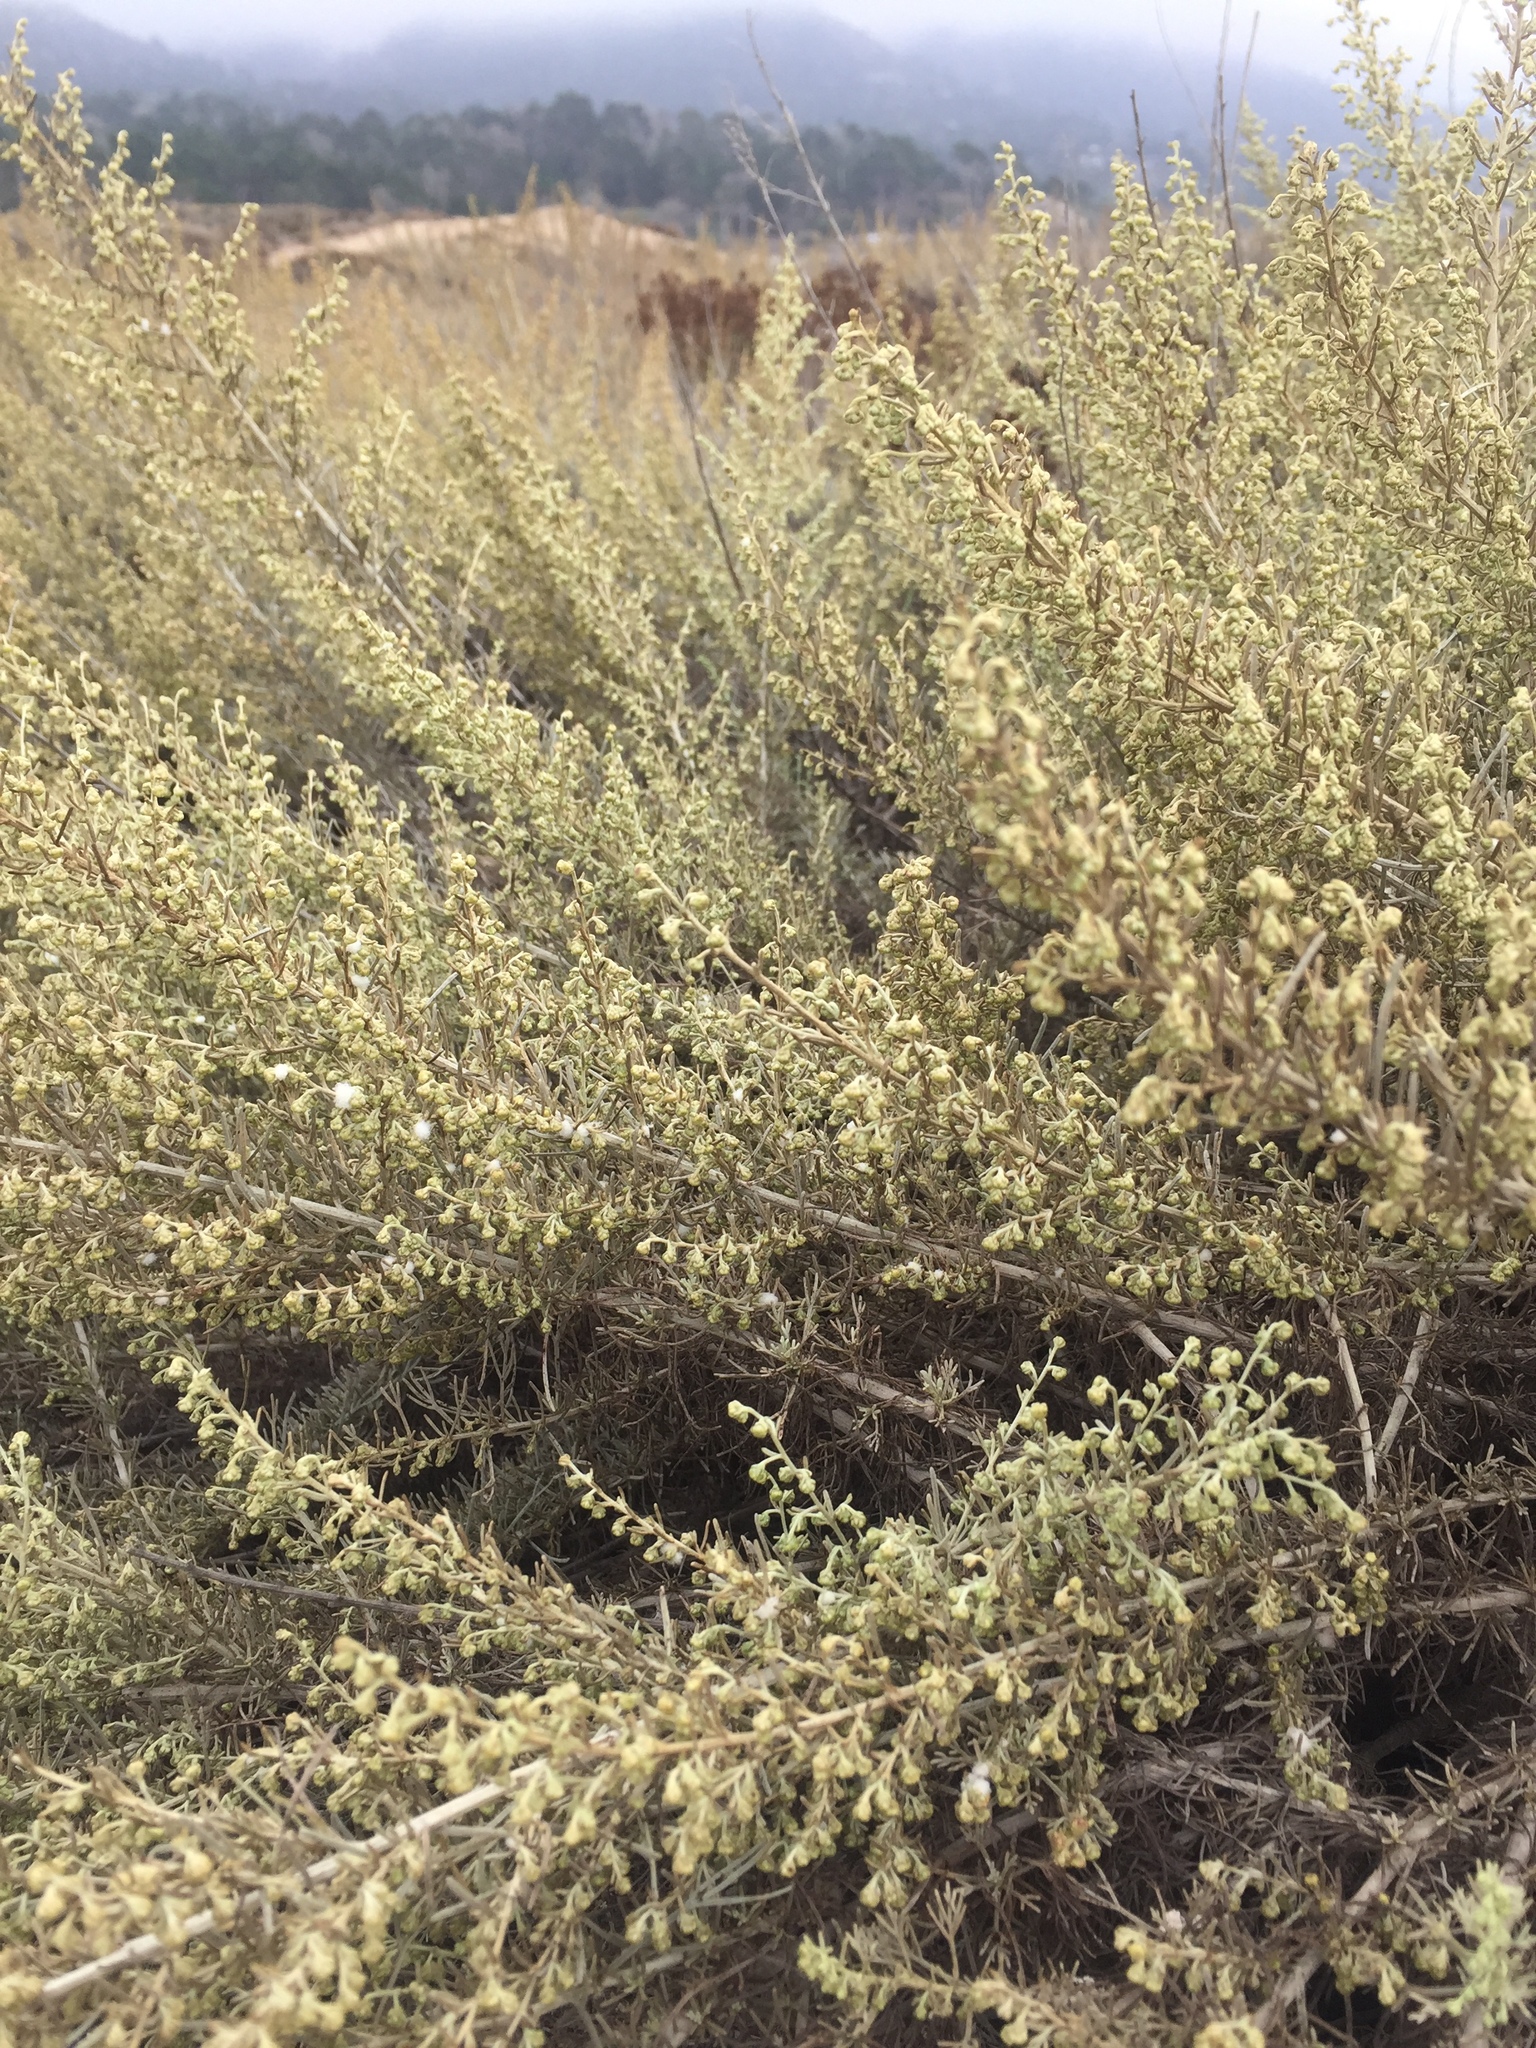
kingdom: Plantae
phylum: Tracheophyta
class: Magnoliopsida
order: Asterales
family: Asteraceae
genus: Artemisia
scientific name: Artemisia californica
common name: California sagebrush
